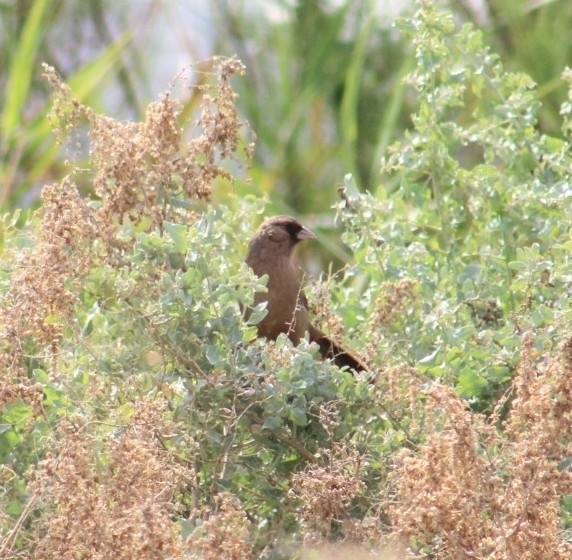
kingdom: Animalia
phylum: Chordata
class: Aves
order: Passeriformes
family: Passerellidae
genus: Melozone
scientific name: Melozone aberti
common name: Abert's towhee
